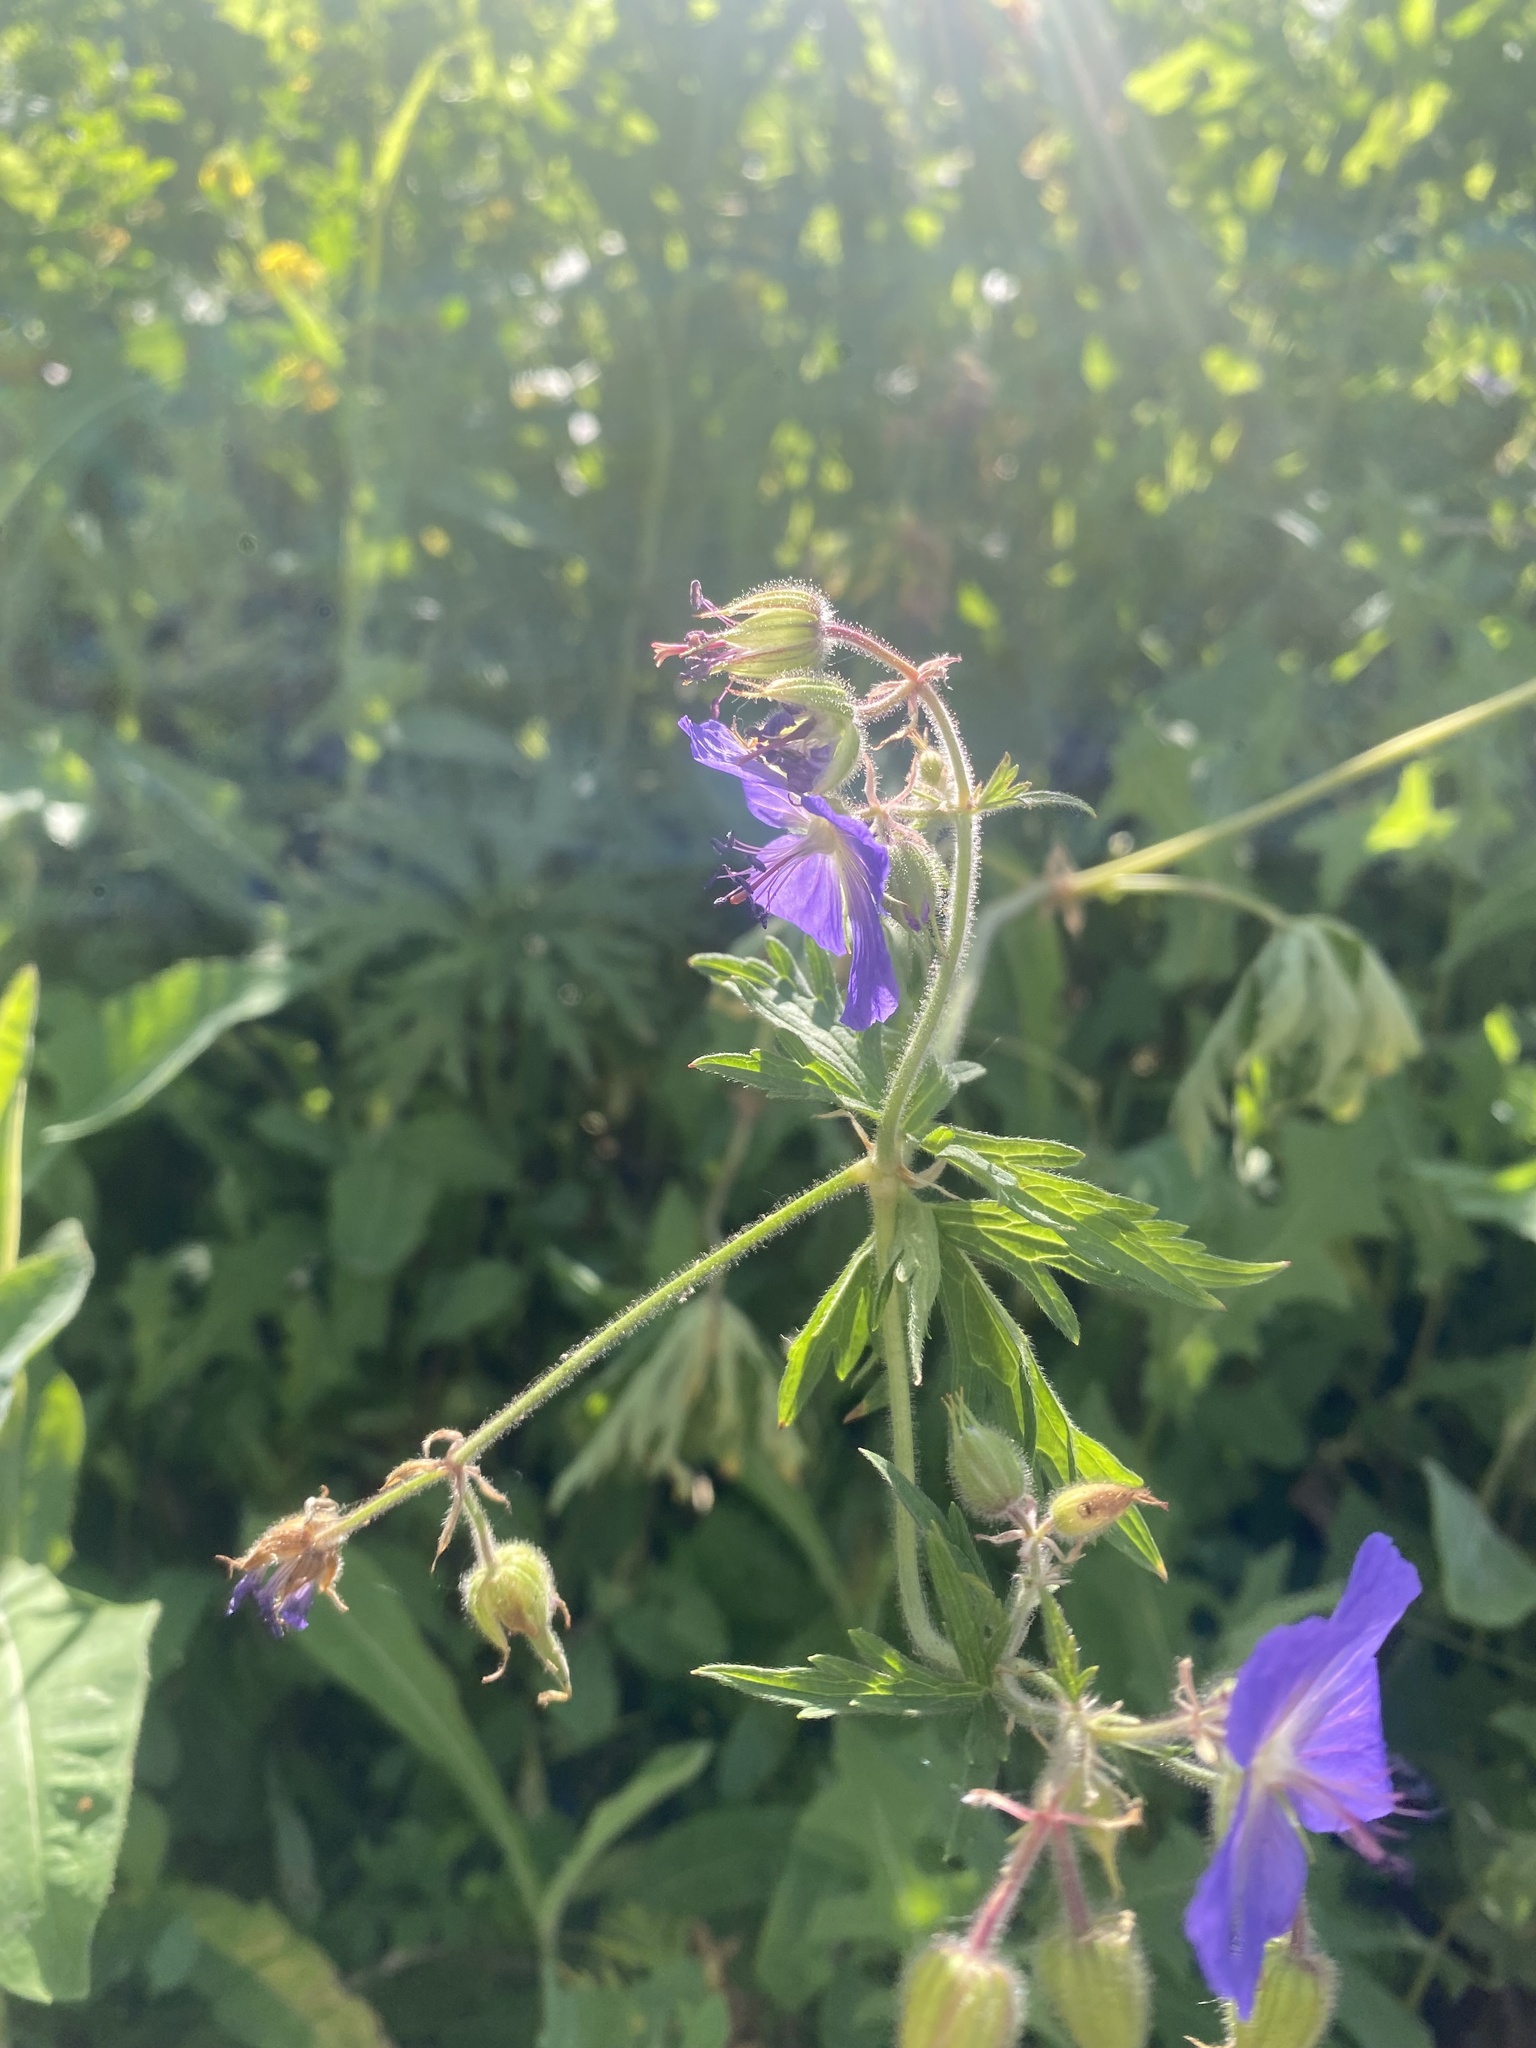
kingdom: Plantae
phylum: Tracheophyta
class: Magnoliopsida
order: Geraniales
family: Geraniaceae
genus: Geranium
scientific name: Geranium pratense
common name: Meadow crane's-bill
